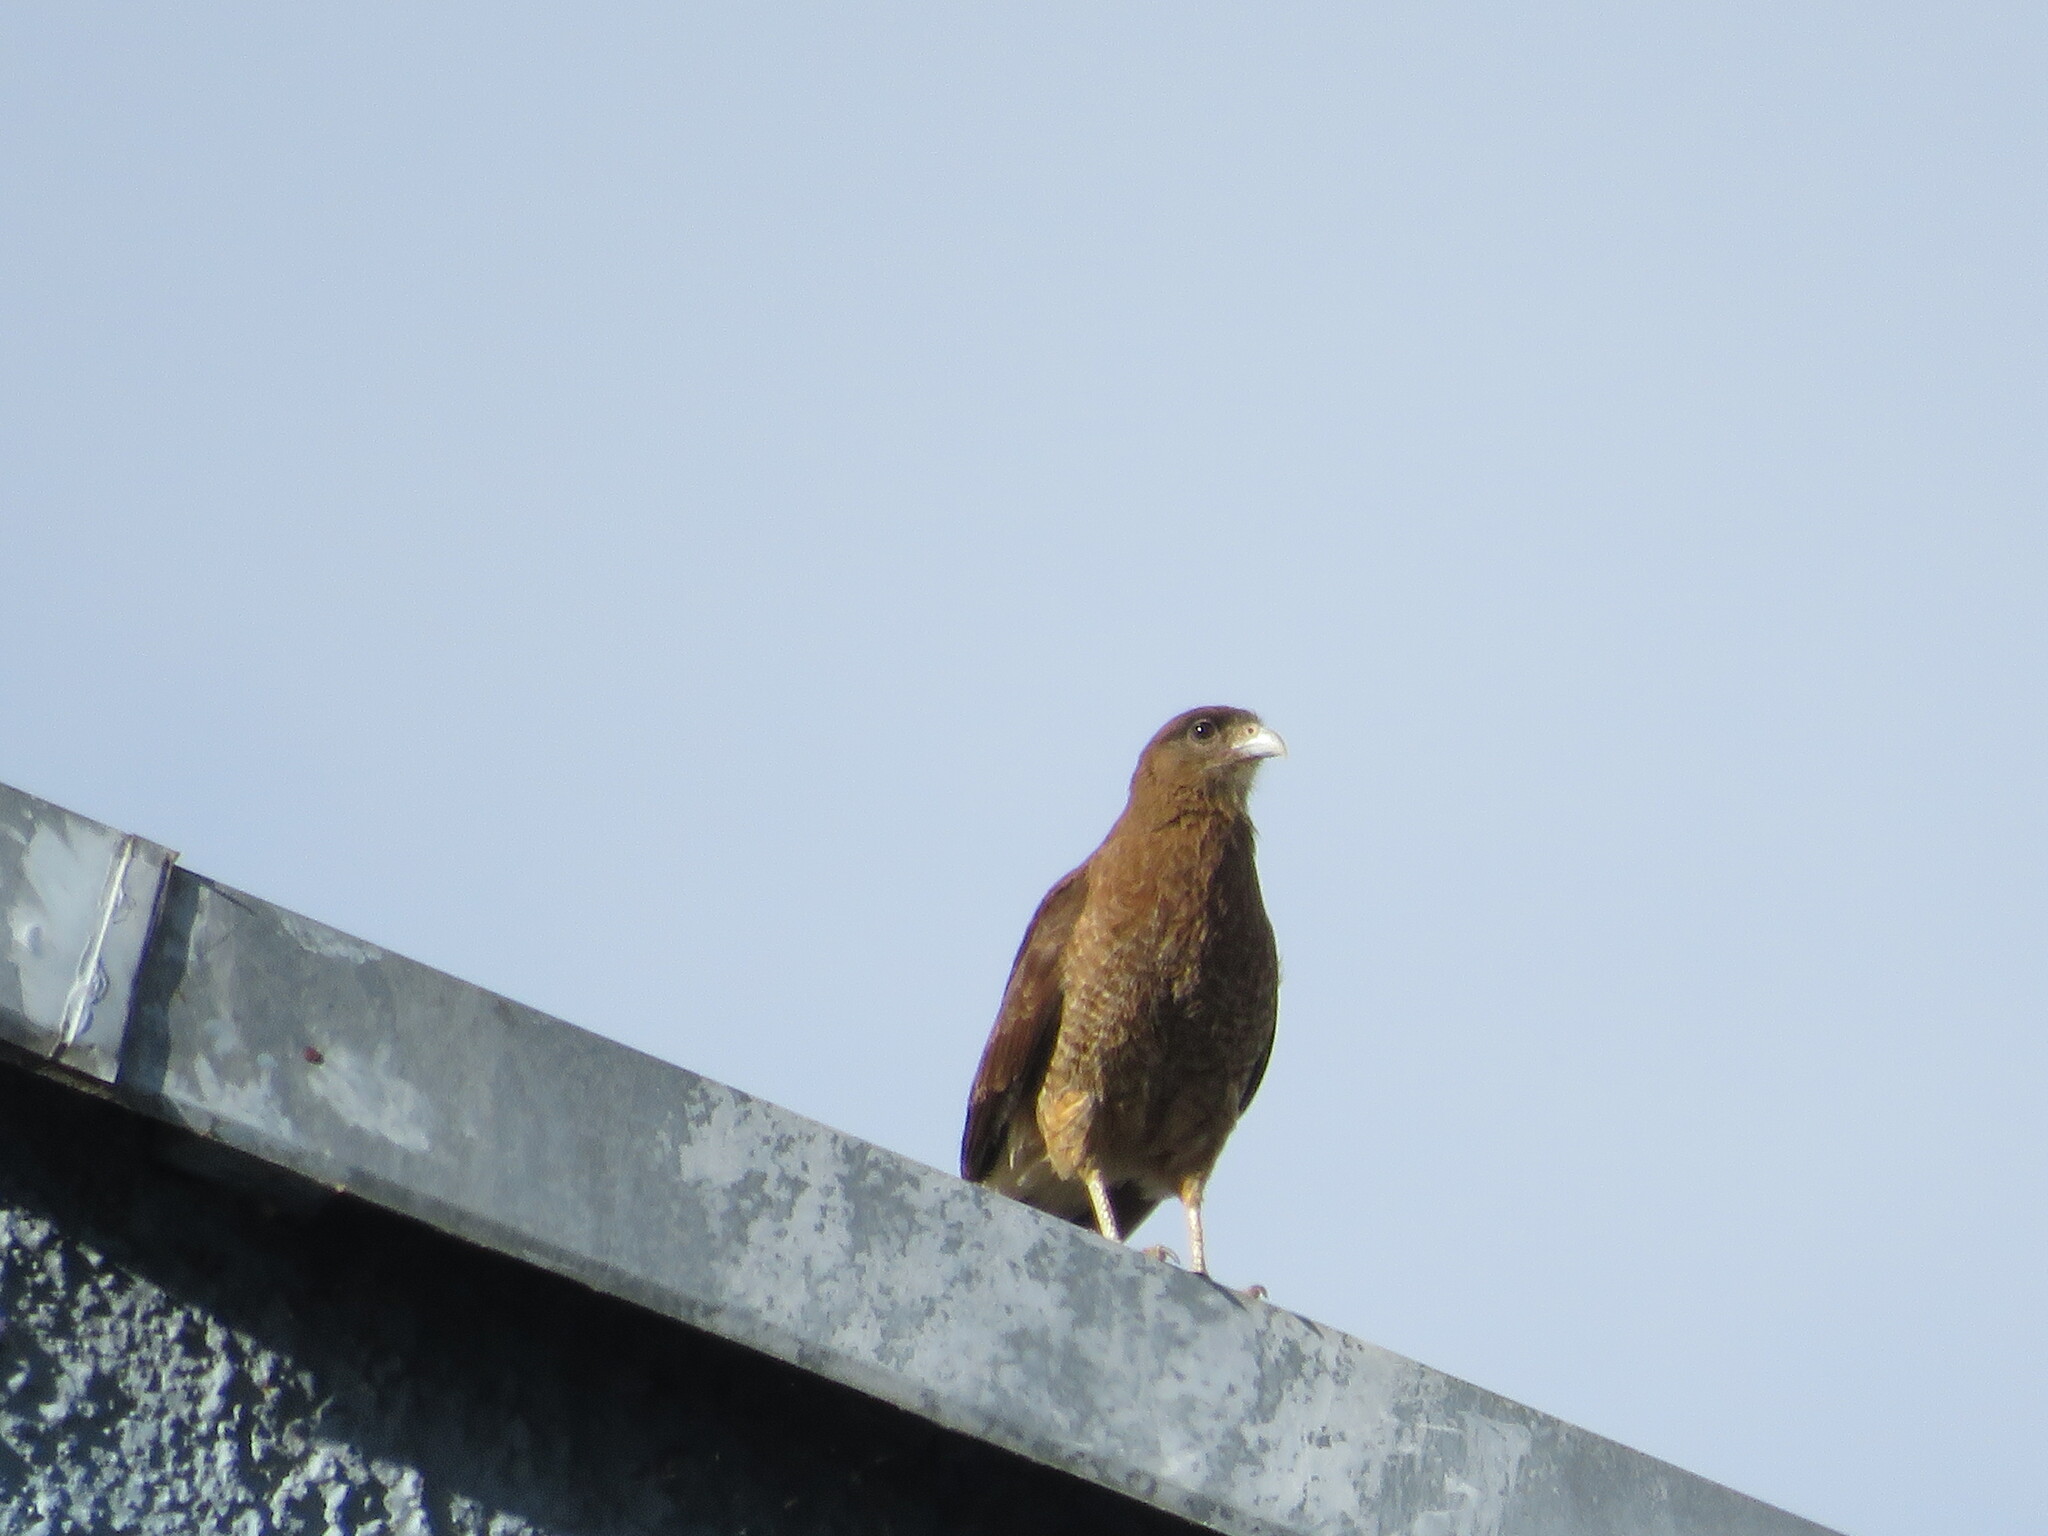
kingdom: Animalia
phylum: Chordata
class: Aves
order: Falconiformes
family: Falconidae
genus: Daptrius
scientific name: Daptrius
